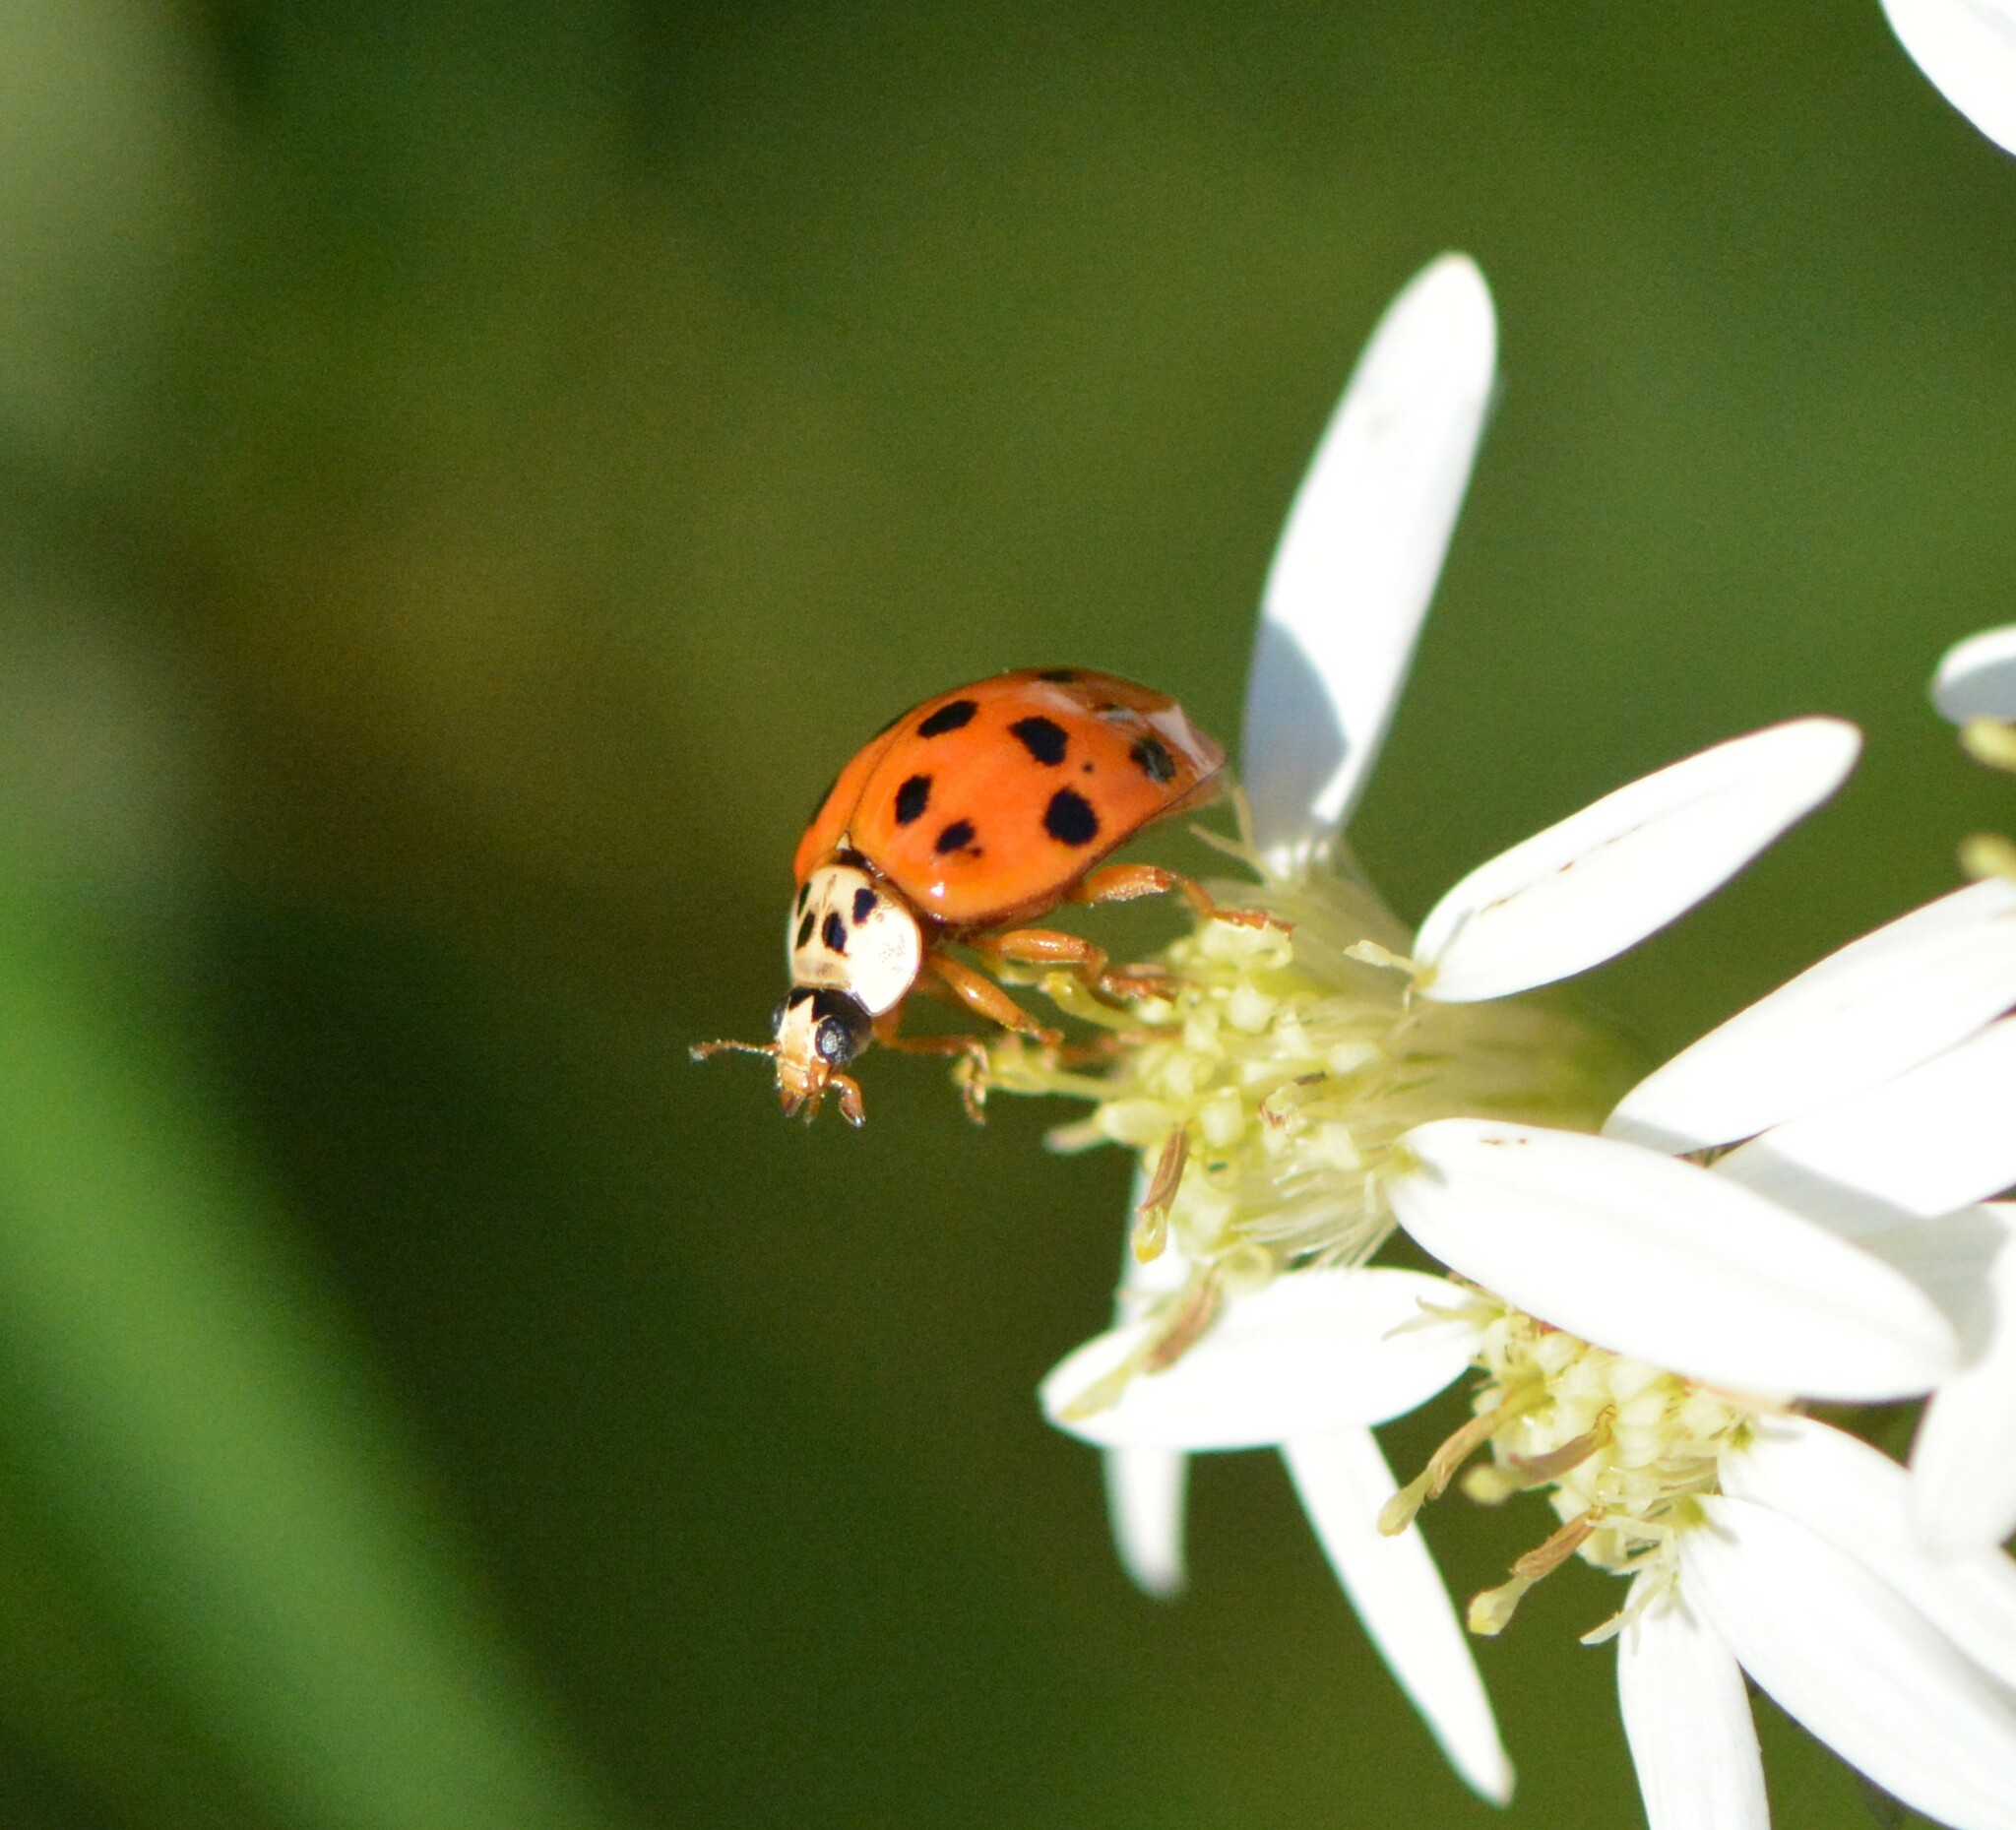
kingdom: Animalia
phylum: Arthropoda
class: Insecta
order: Coleoptera
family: Coccinellidae
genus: Harmonia
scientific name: Harmonia axyridis
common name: Harlequin ladybird
